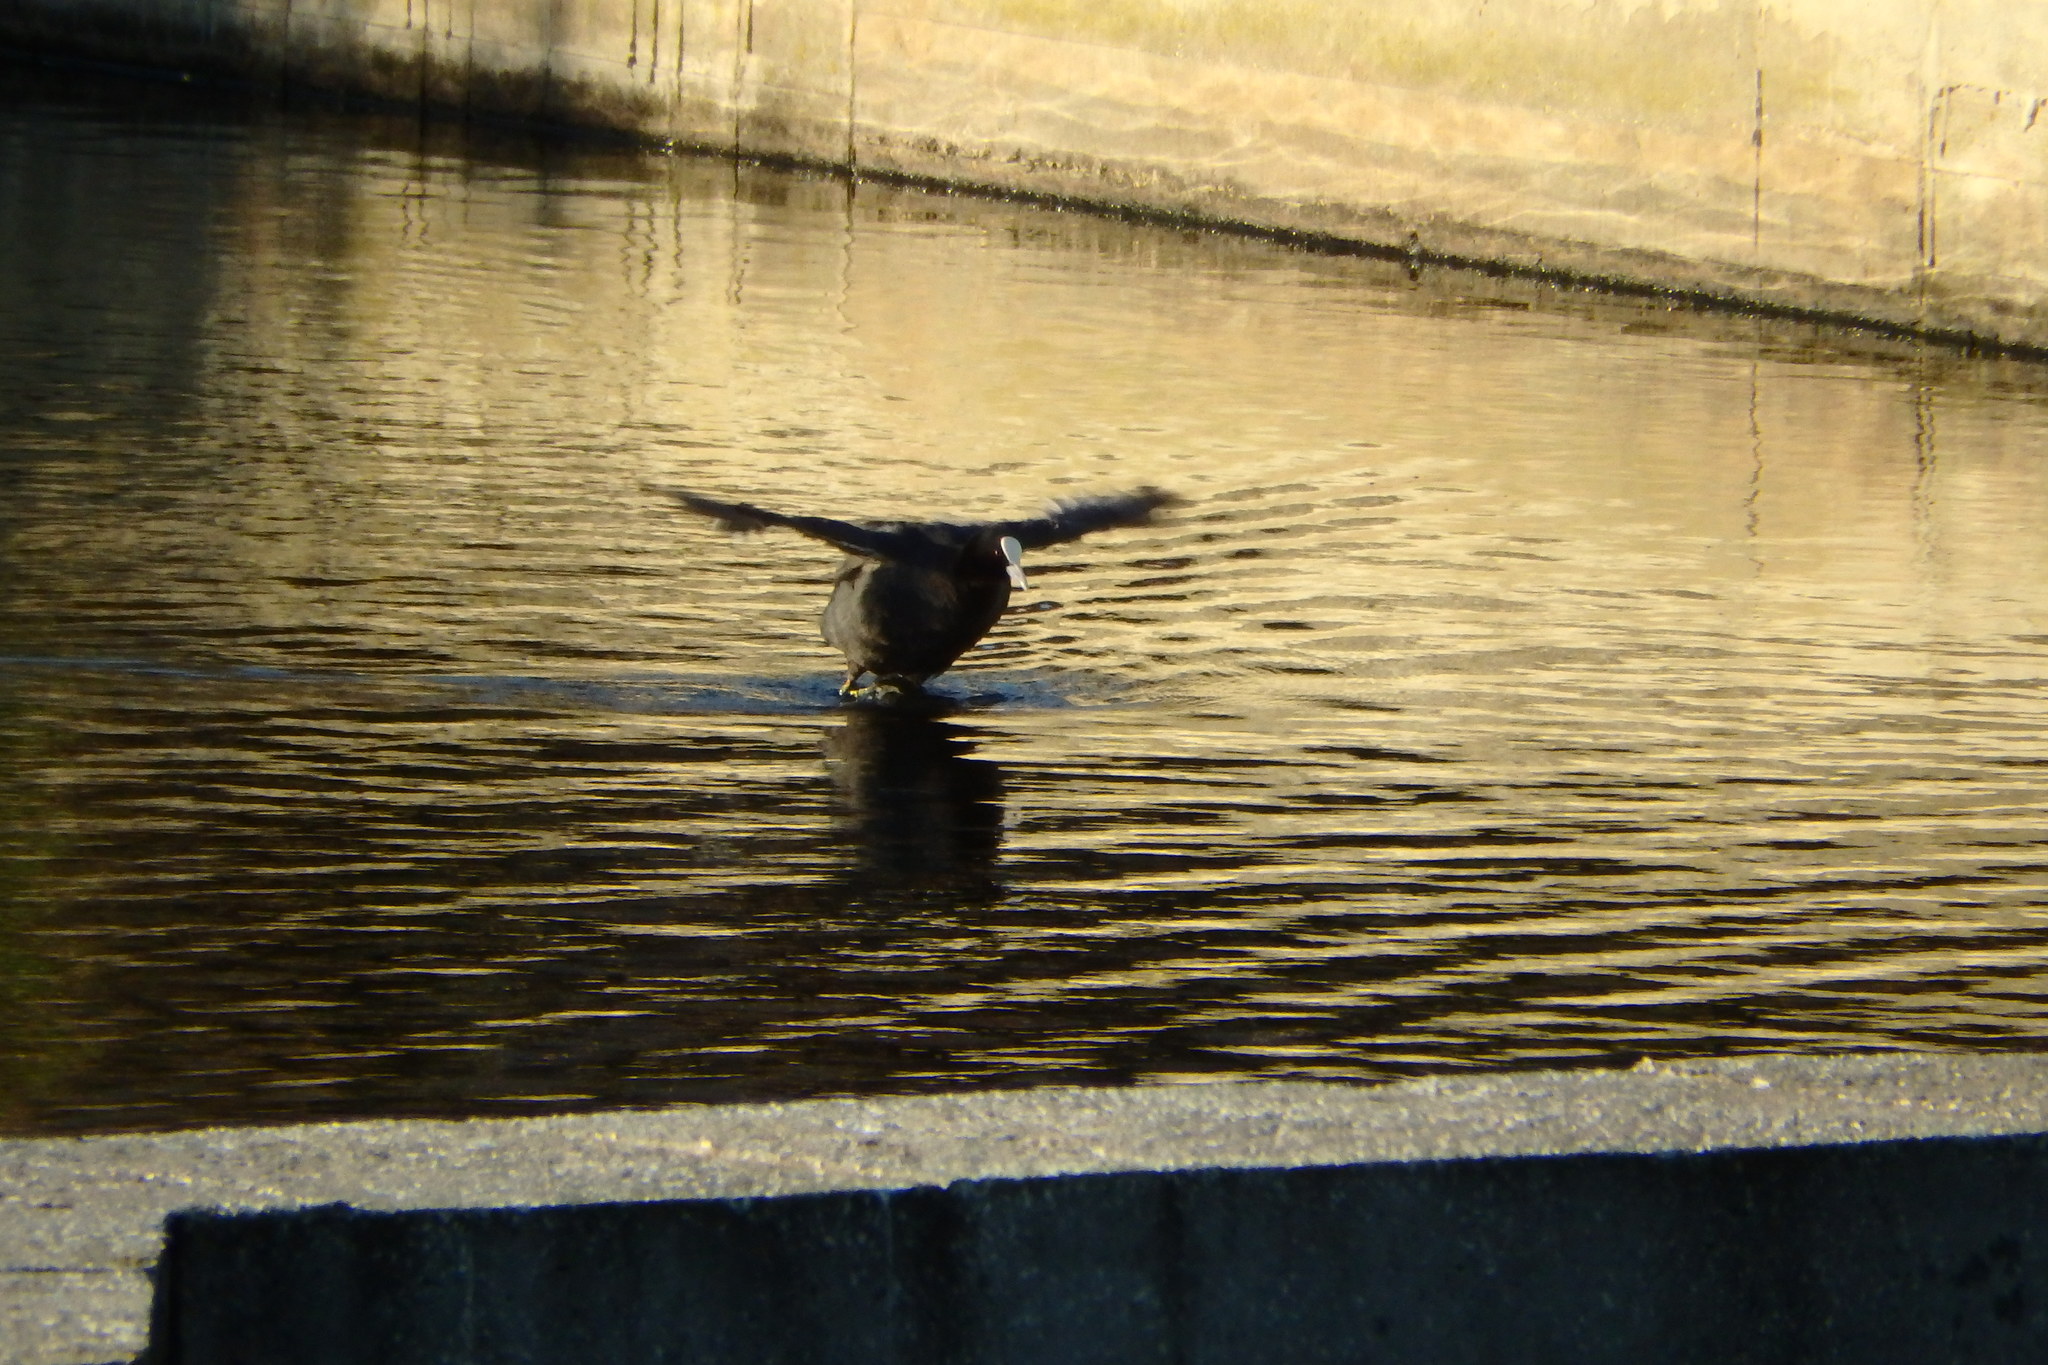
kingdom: Animalia
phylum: Chordata
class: Aves
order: Gruiformes
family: Rallidae
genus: Fulica
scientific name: Fulica atra
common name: Eurasian coot
